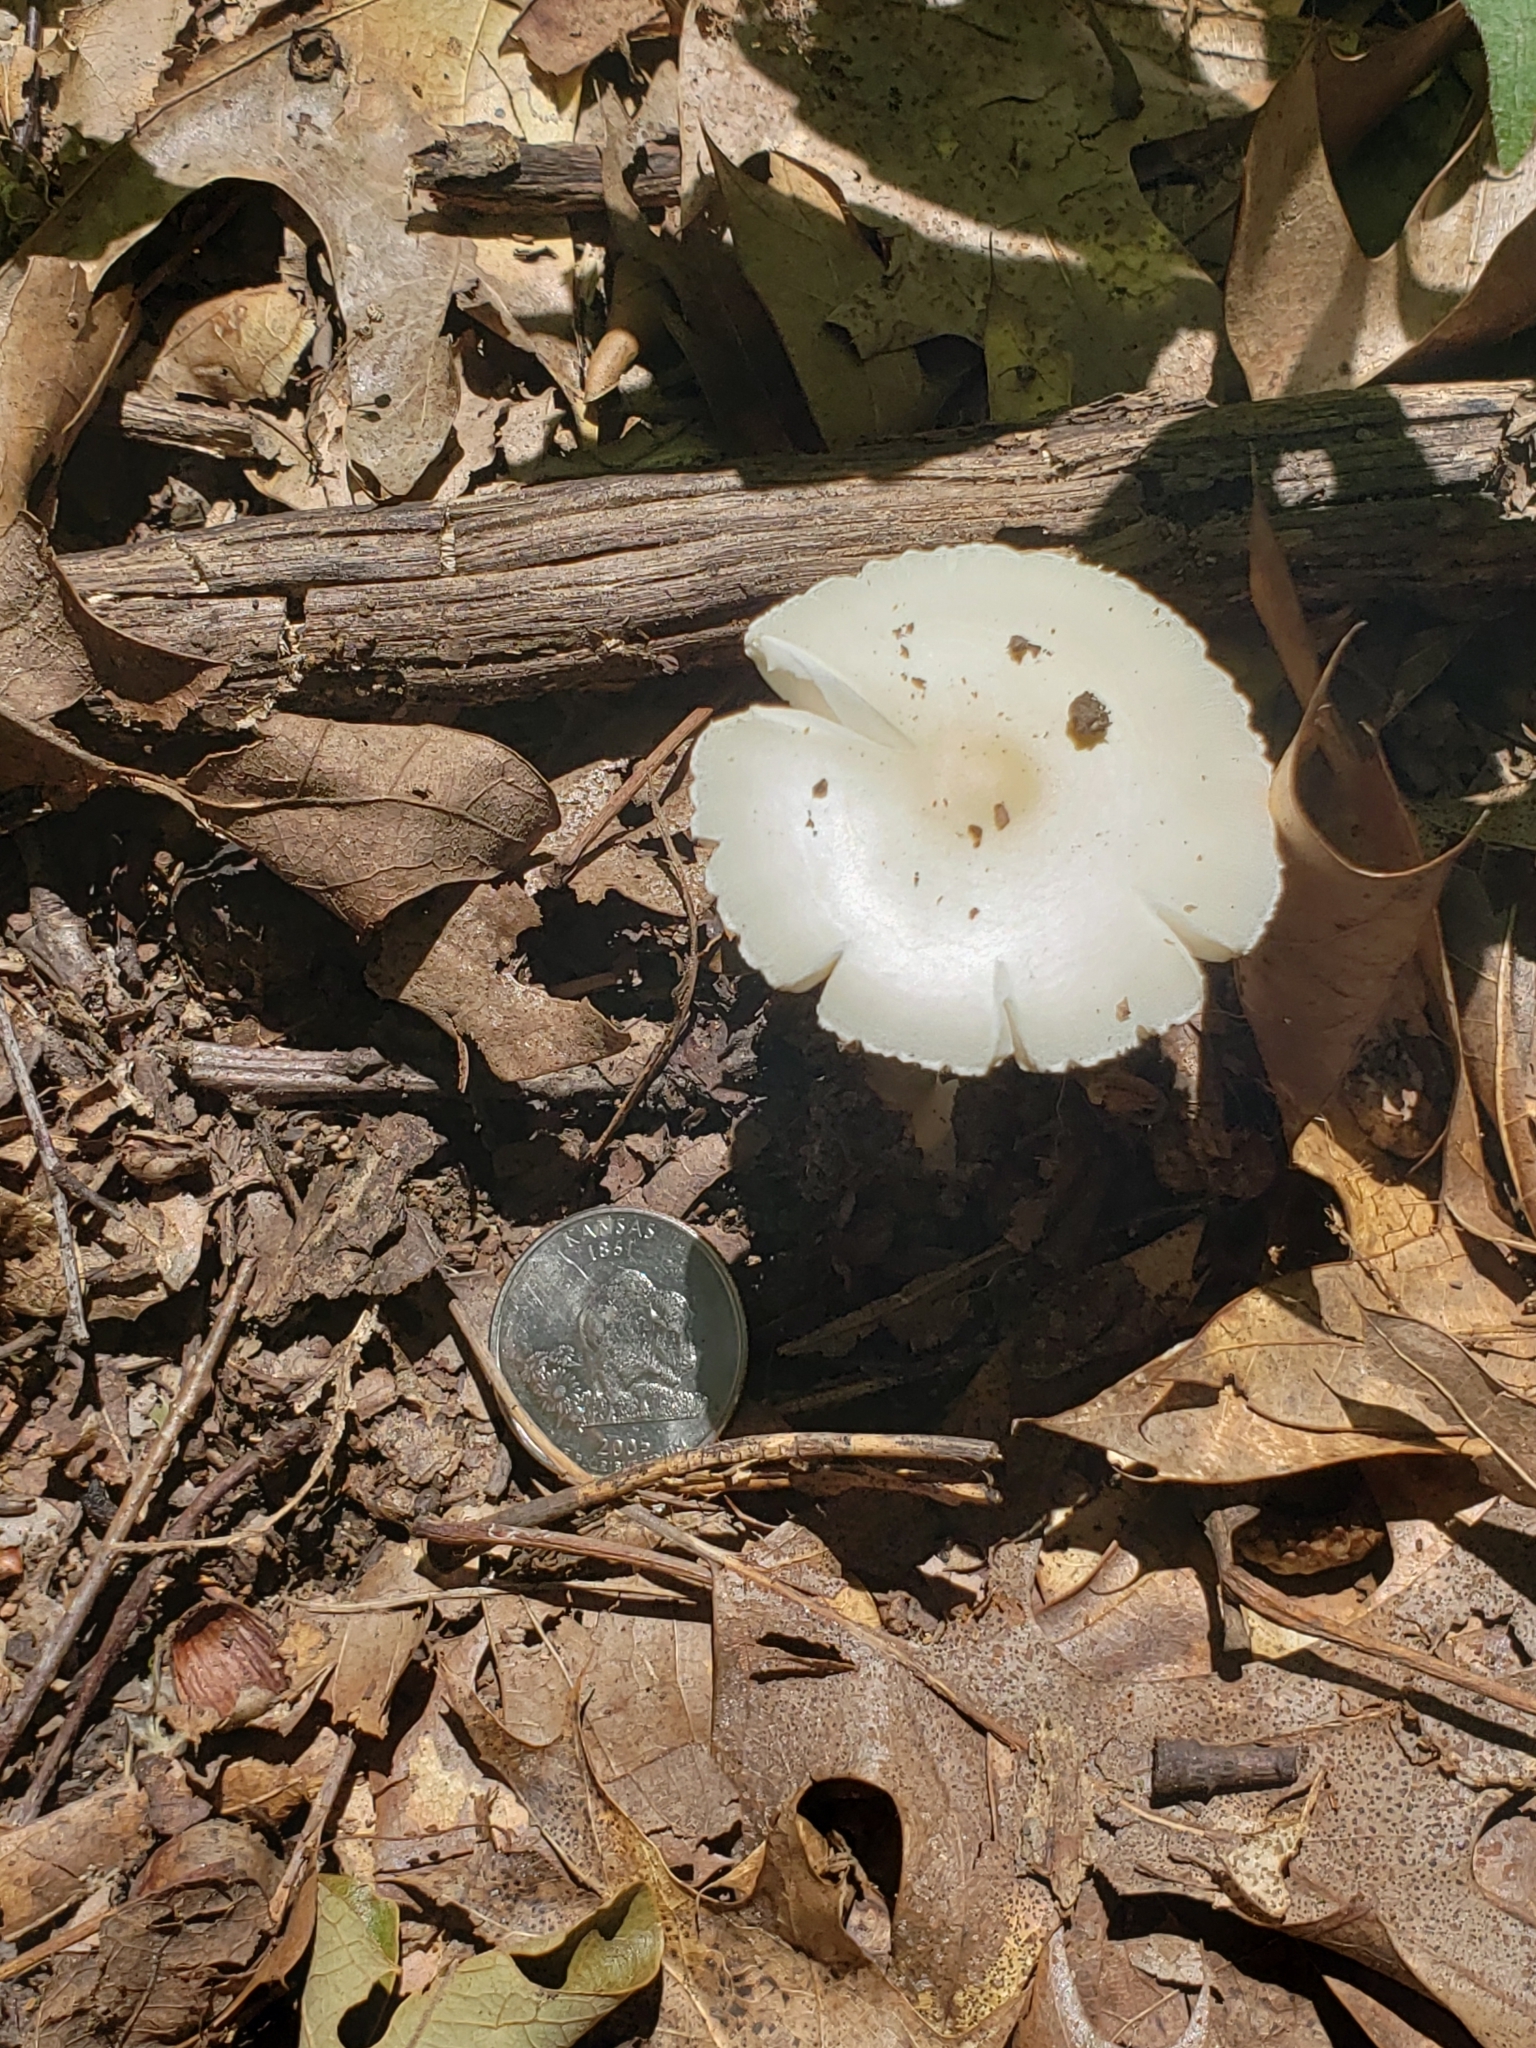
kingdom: Fungi
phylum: Basidiomycota
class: Agaricomycetes
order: Agaricales
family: Amanitaceae
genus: Amanita
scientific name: Amanita bisporigera
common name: Eastern north american destroying angel
